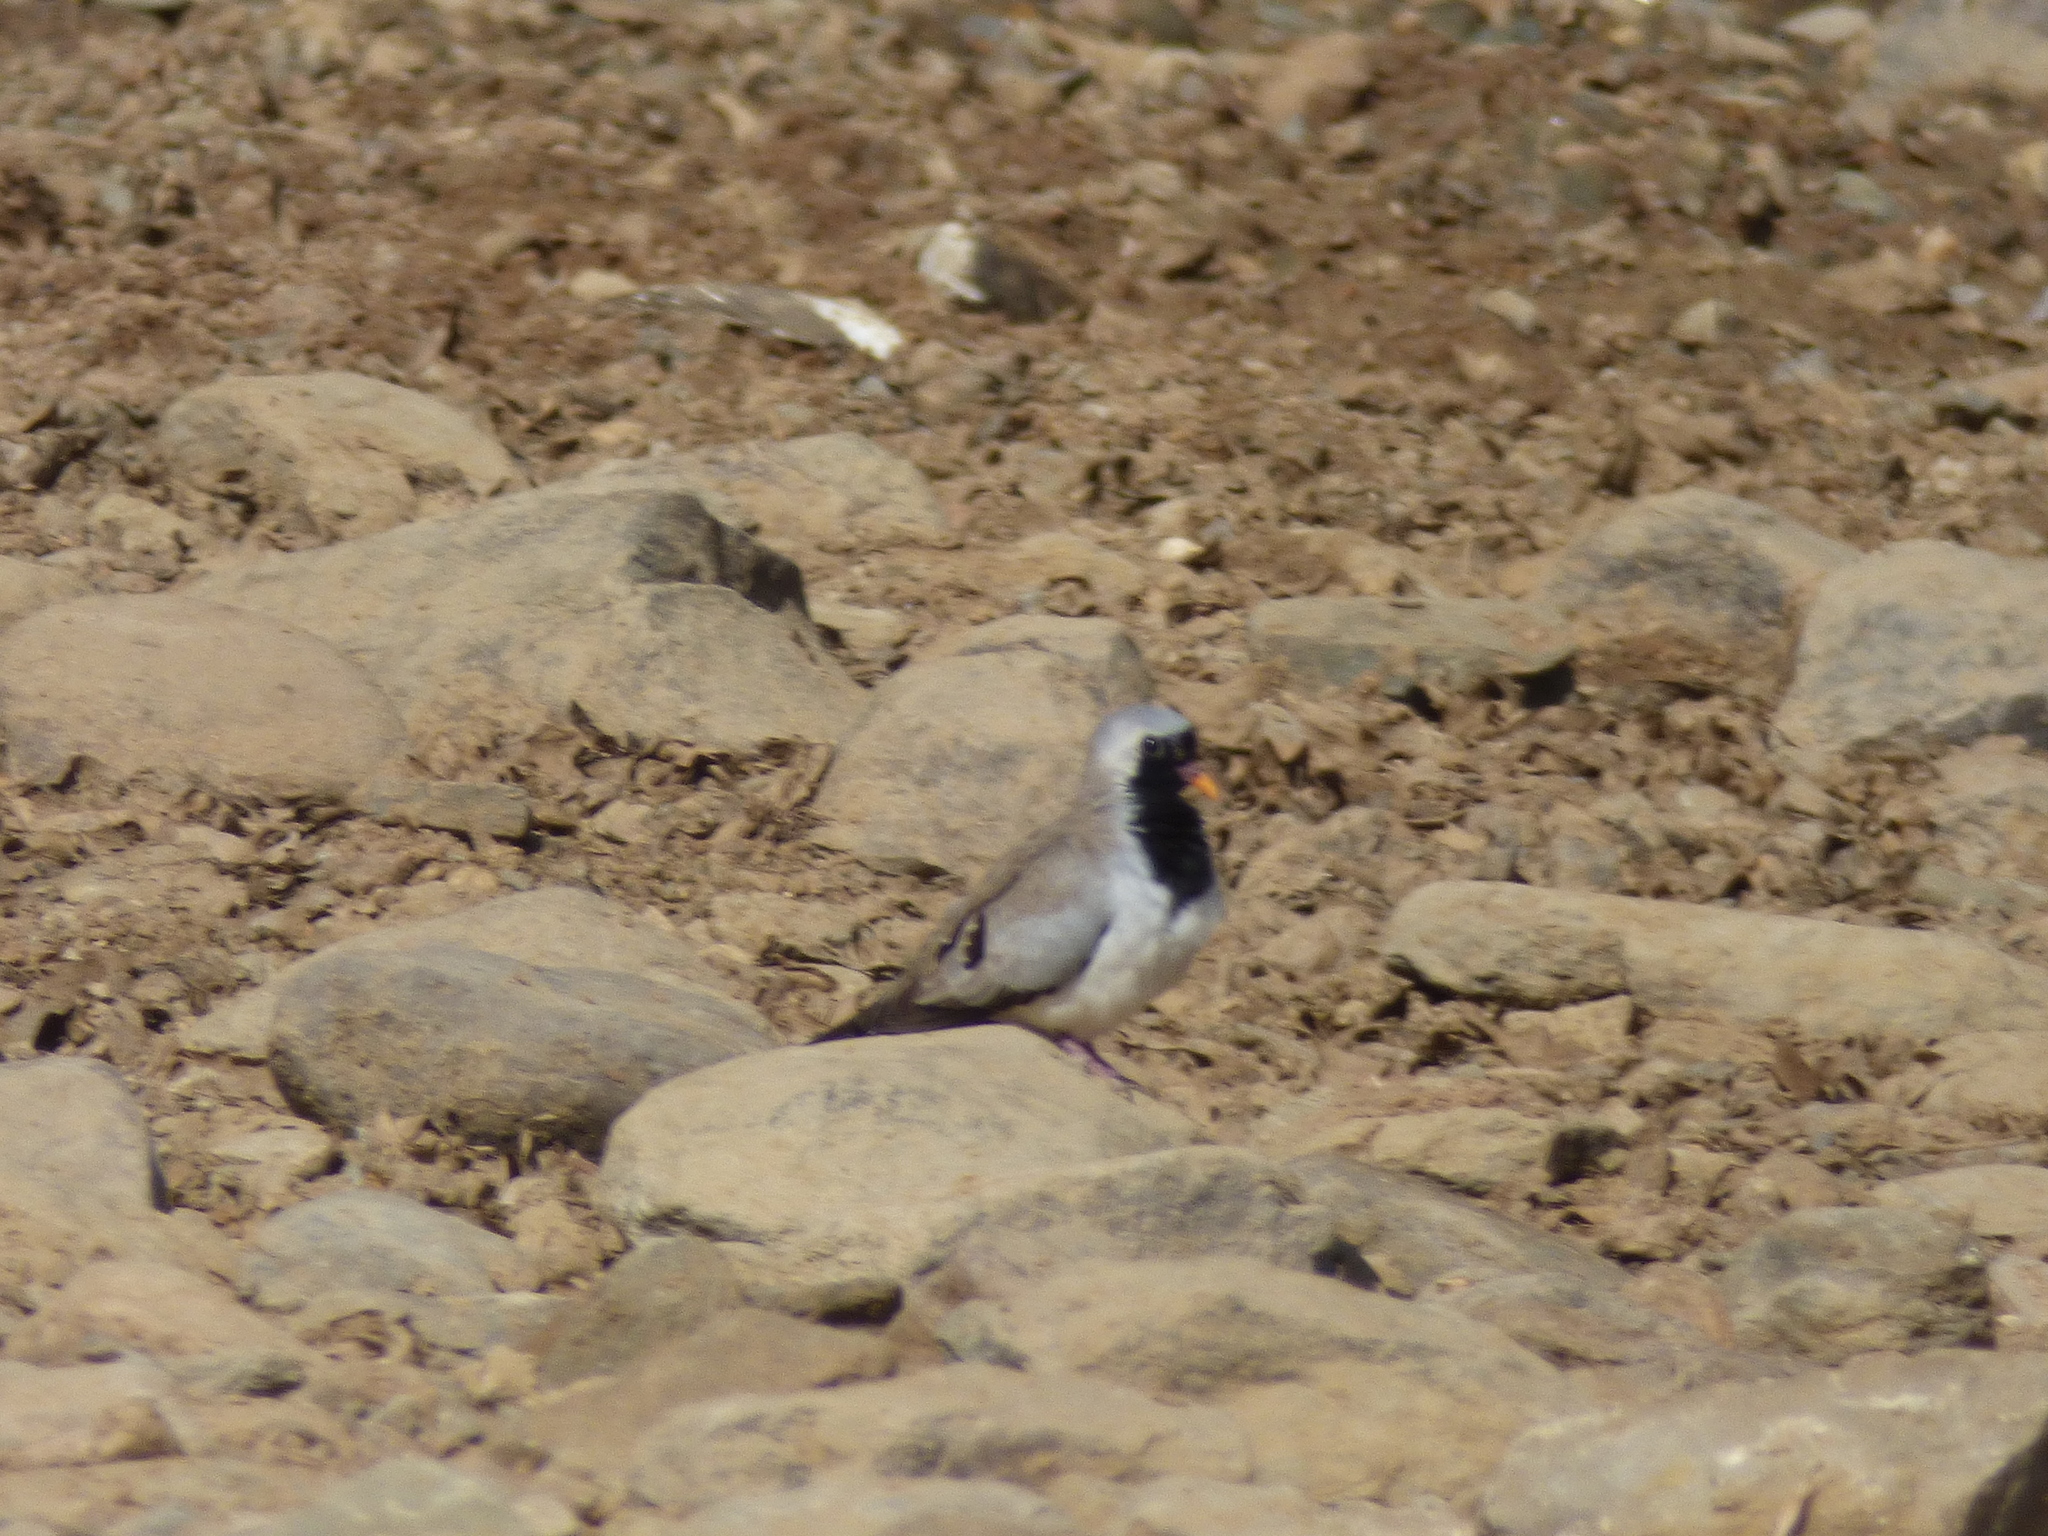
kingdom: Animalia
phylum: Chordata
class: Aves
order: Columbiformes
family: Columbidae
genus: Oena
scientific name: Oena capensis
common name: Namaqua dove
